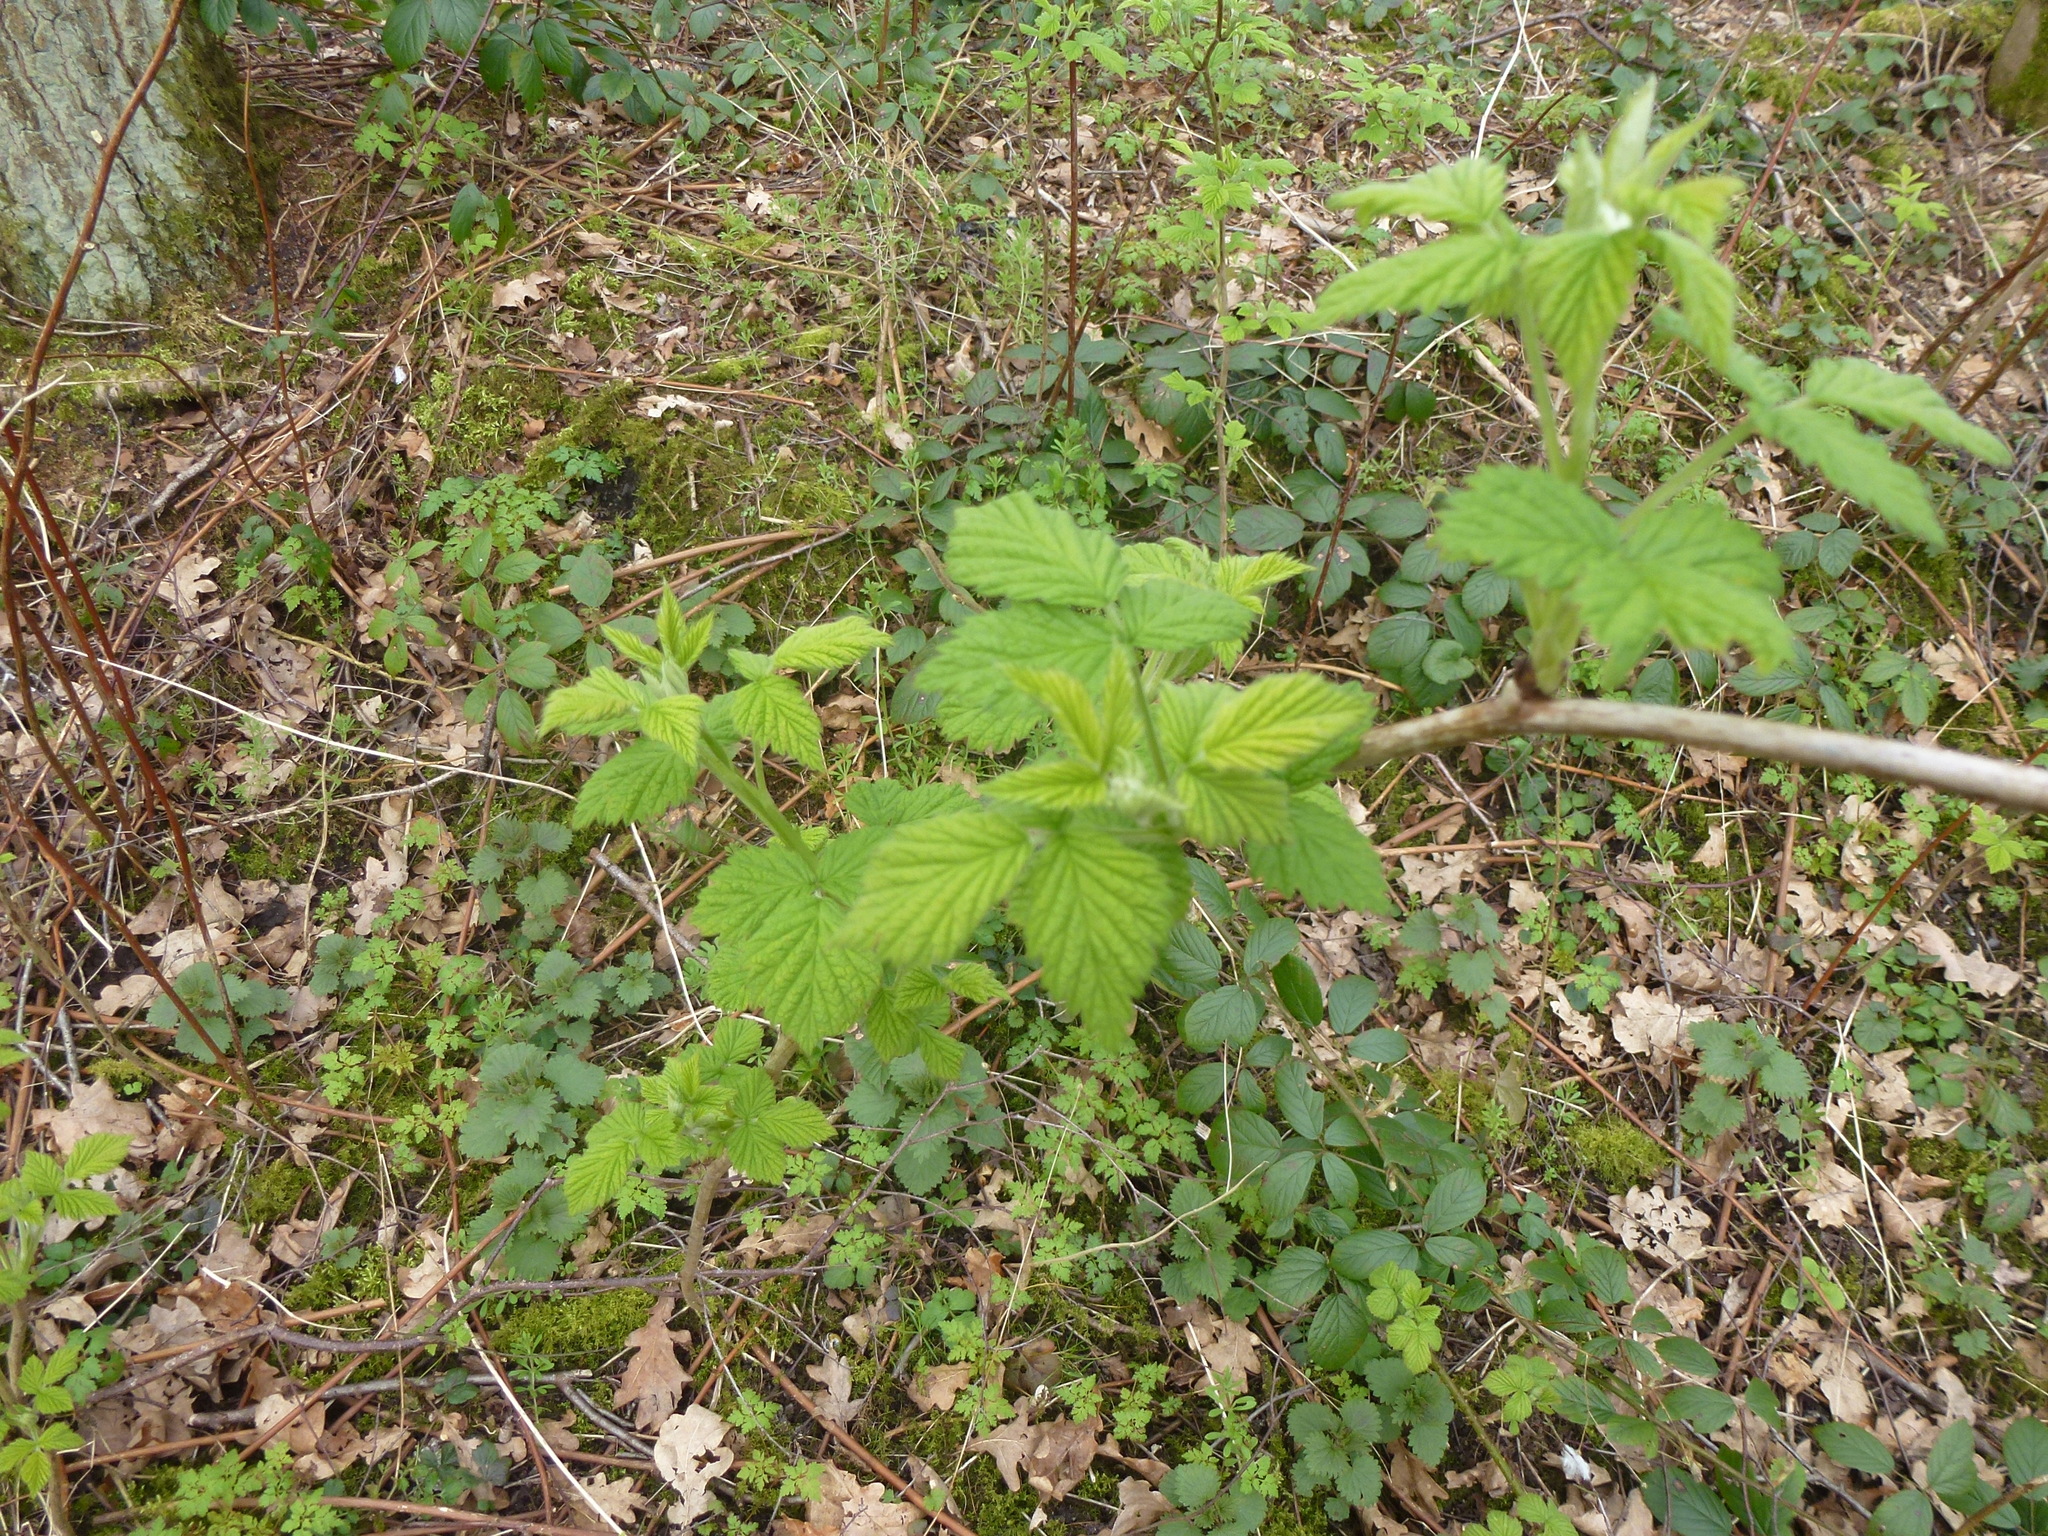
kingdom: Plantae
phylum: Tracheophyta
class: Magnoliopsida
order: Rosales
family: Rosaceae
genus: Rubus
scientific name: Rubus idaeus
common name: Raspberry
